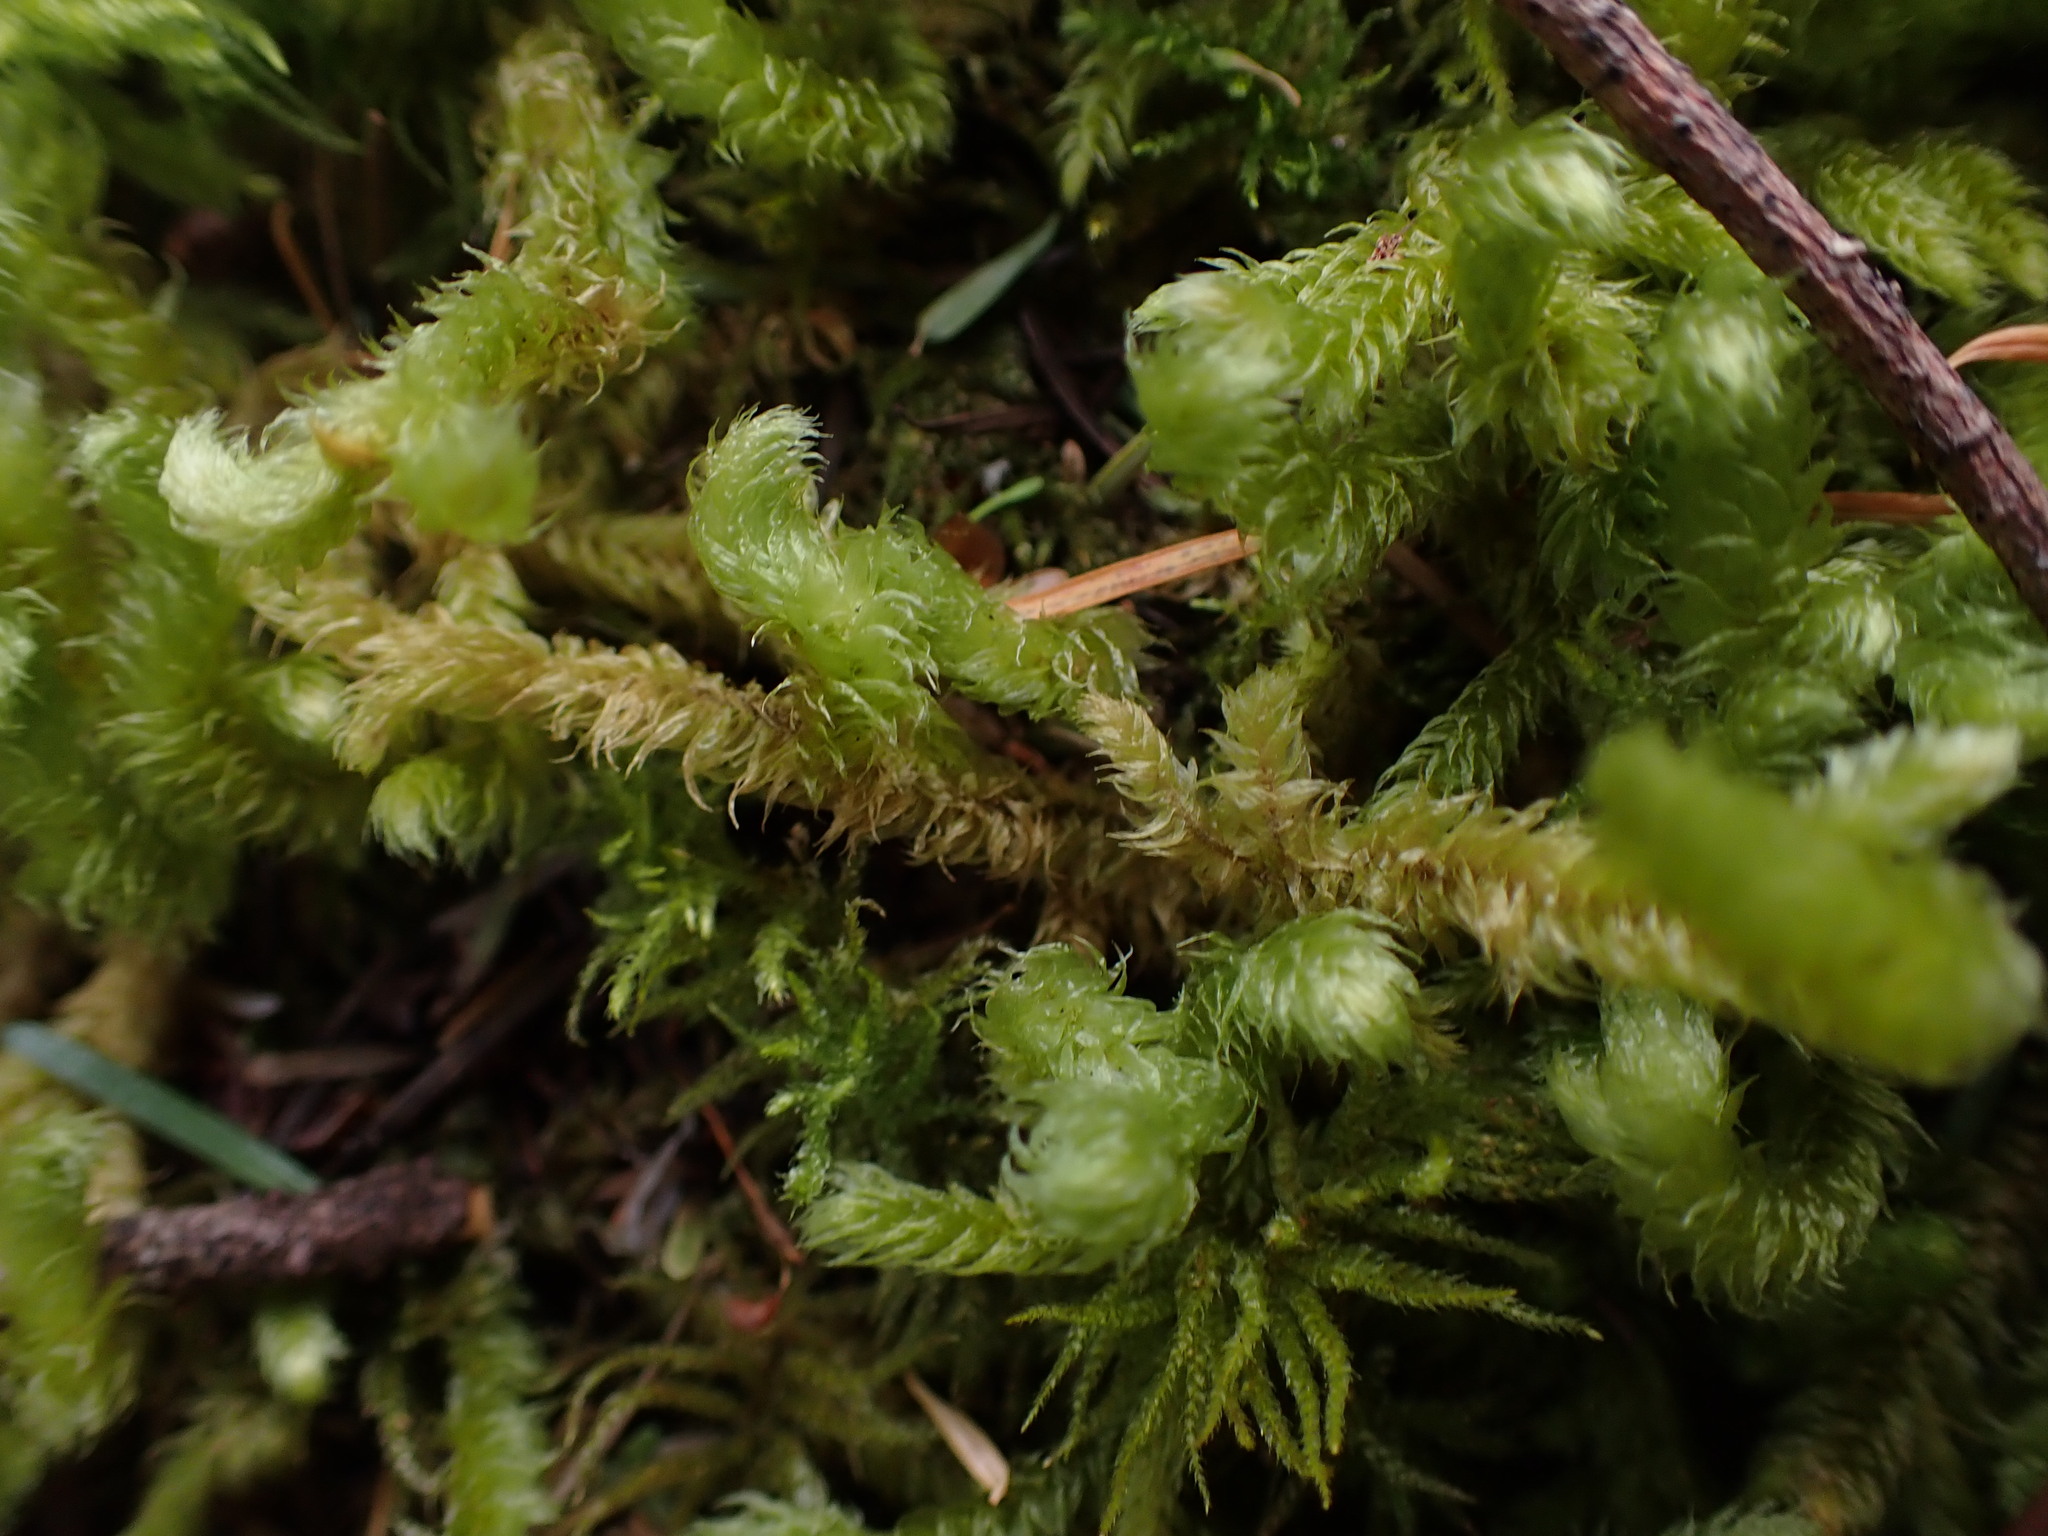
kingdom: Plantae
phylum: Bryophyta
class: Bryopsida
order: Hypnales
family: Hylocomiaceae
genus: Rhytidiopsis
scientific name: Rhytidiopsis robusta
